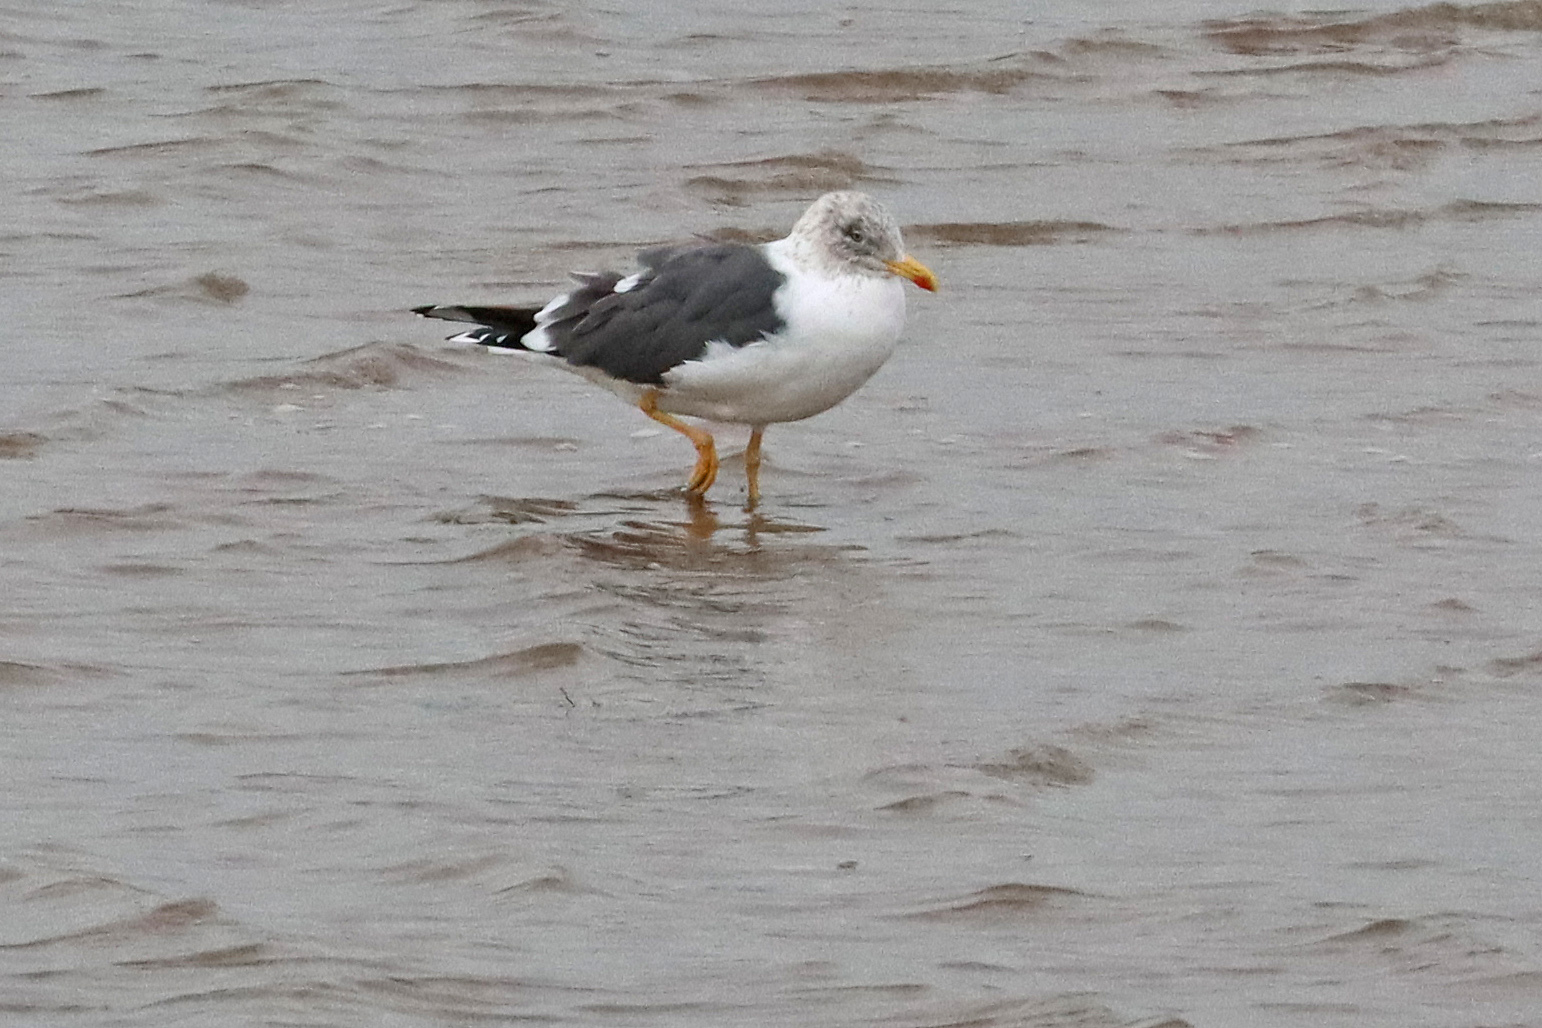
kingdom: Animalia
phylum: Chordata
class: Aves
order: Charadriiformes
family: Laridae
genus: Larus
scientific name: Larus fuscus
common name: Lesser black-backed gull
